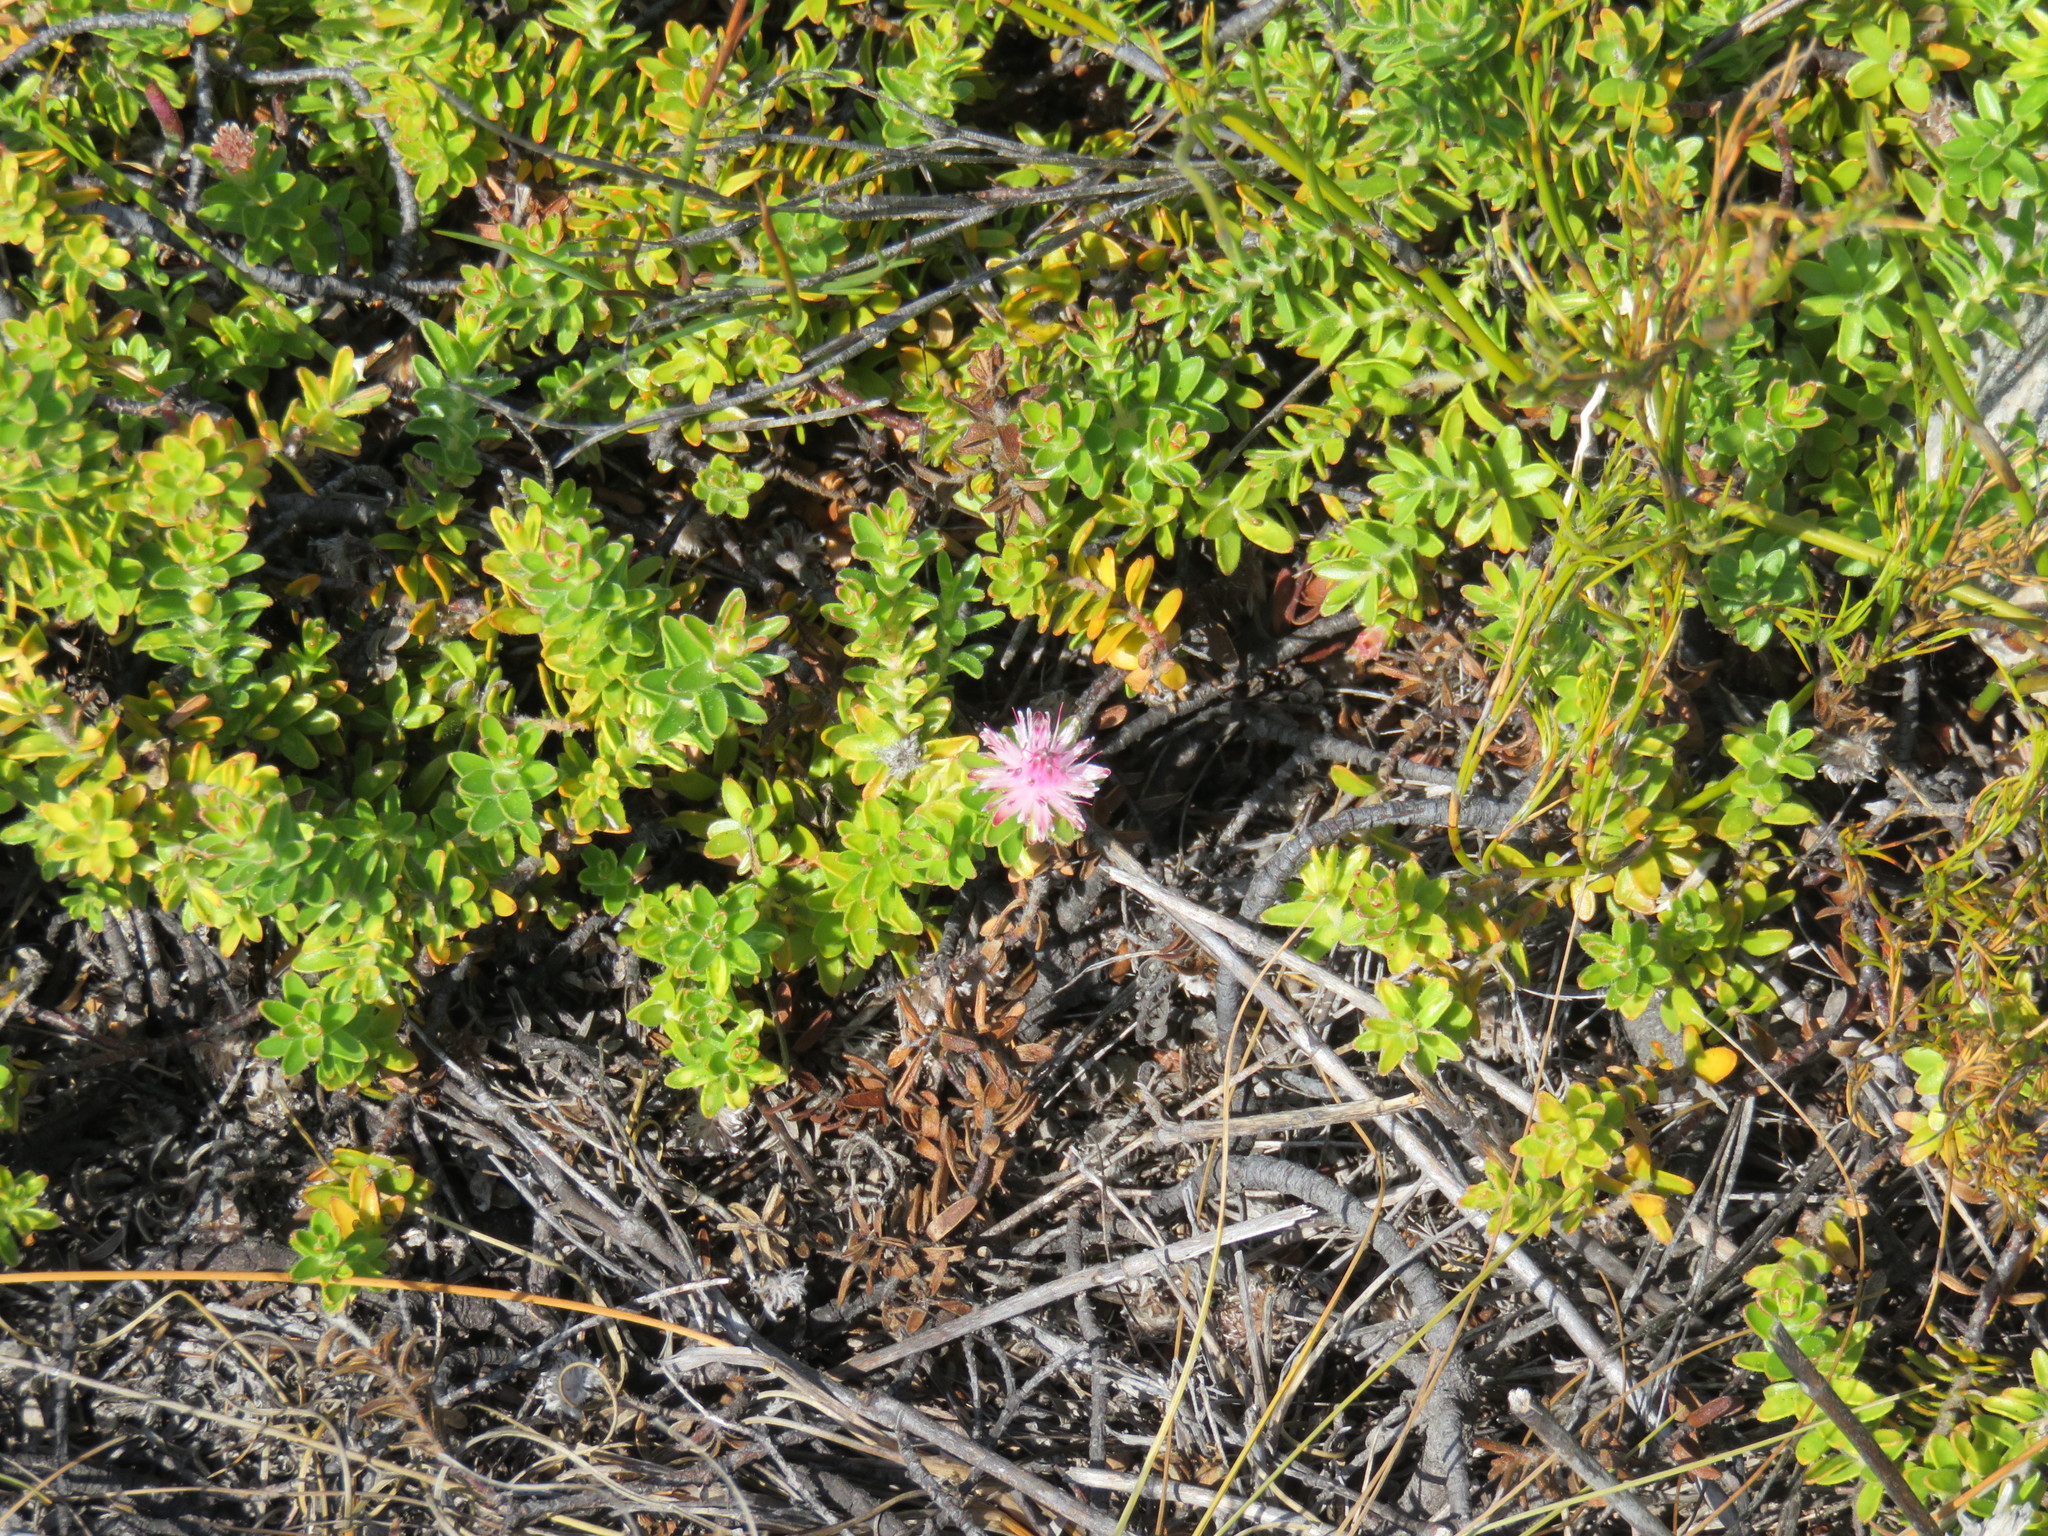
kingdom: Plantae
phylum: Tracheophyta
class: Magnoliopsida
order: Proteales
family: Proteaceae
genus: Diastella
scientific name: Diastella divaricata
